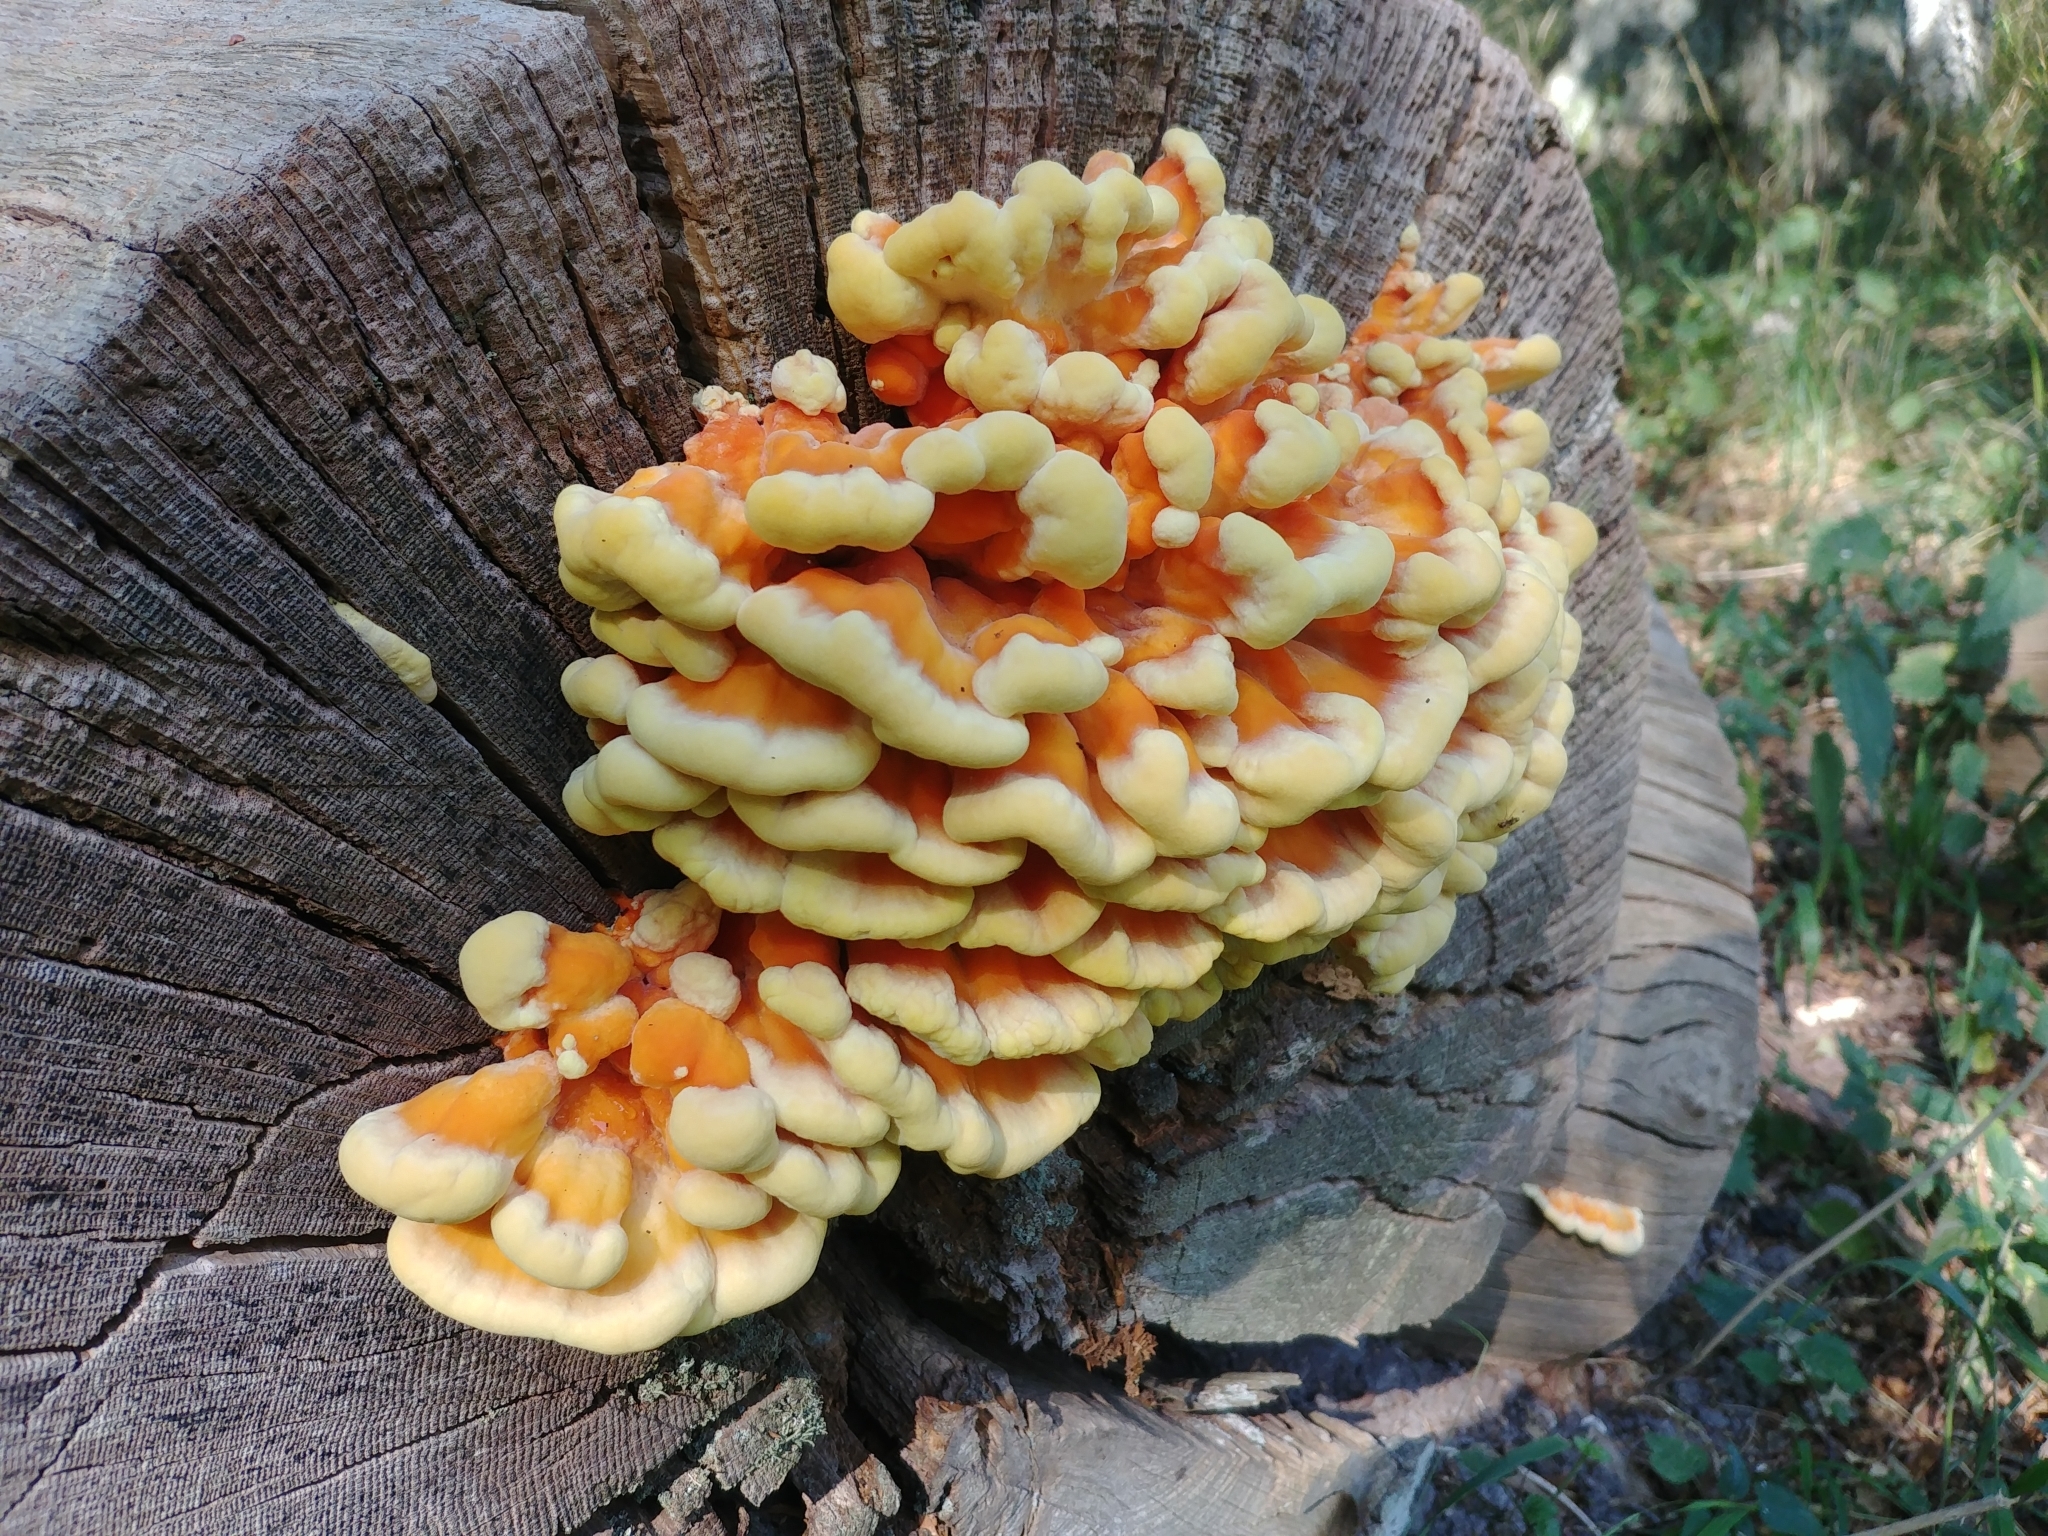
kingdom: Fungi
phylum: Basidiomycota
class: Agaricomycetes
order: Polyporales
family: Laetiporaceae
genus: Laetiporus
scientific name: Laetiporus sulphureus
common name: Chicken of the woods
